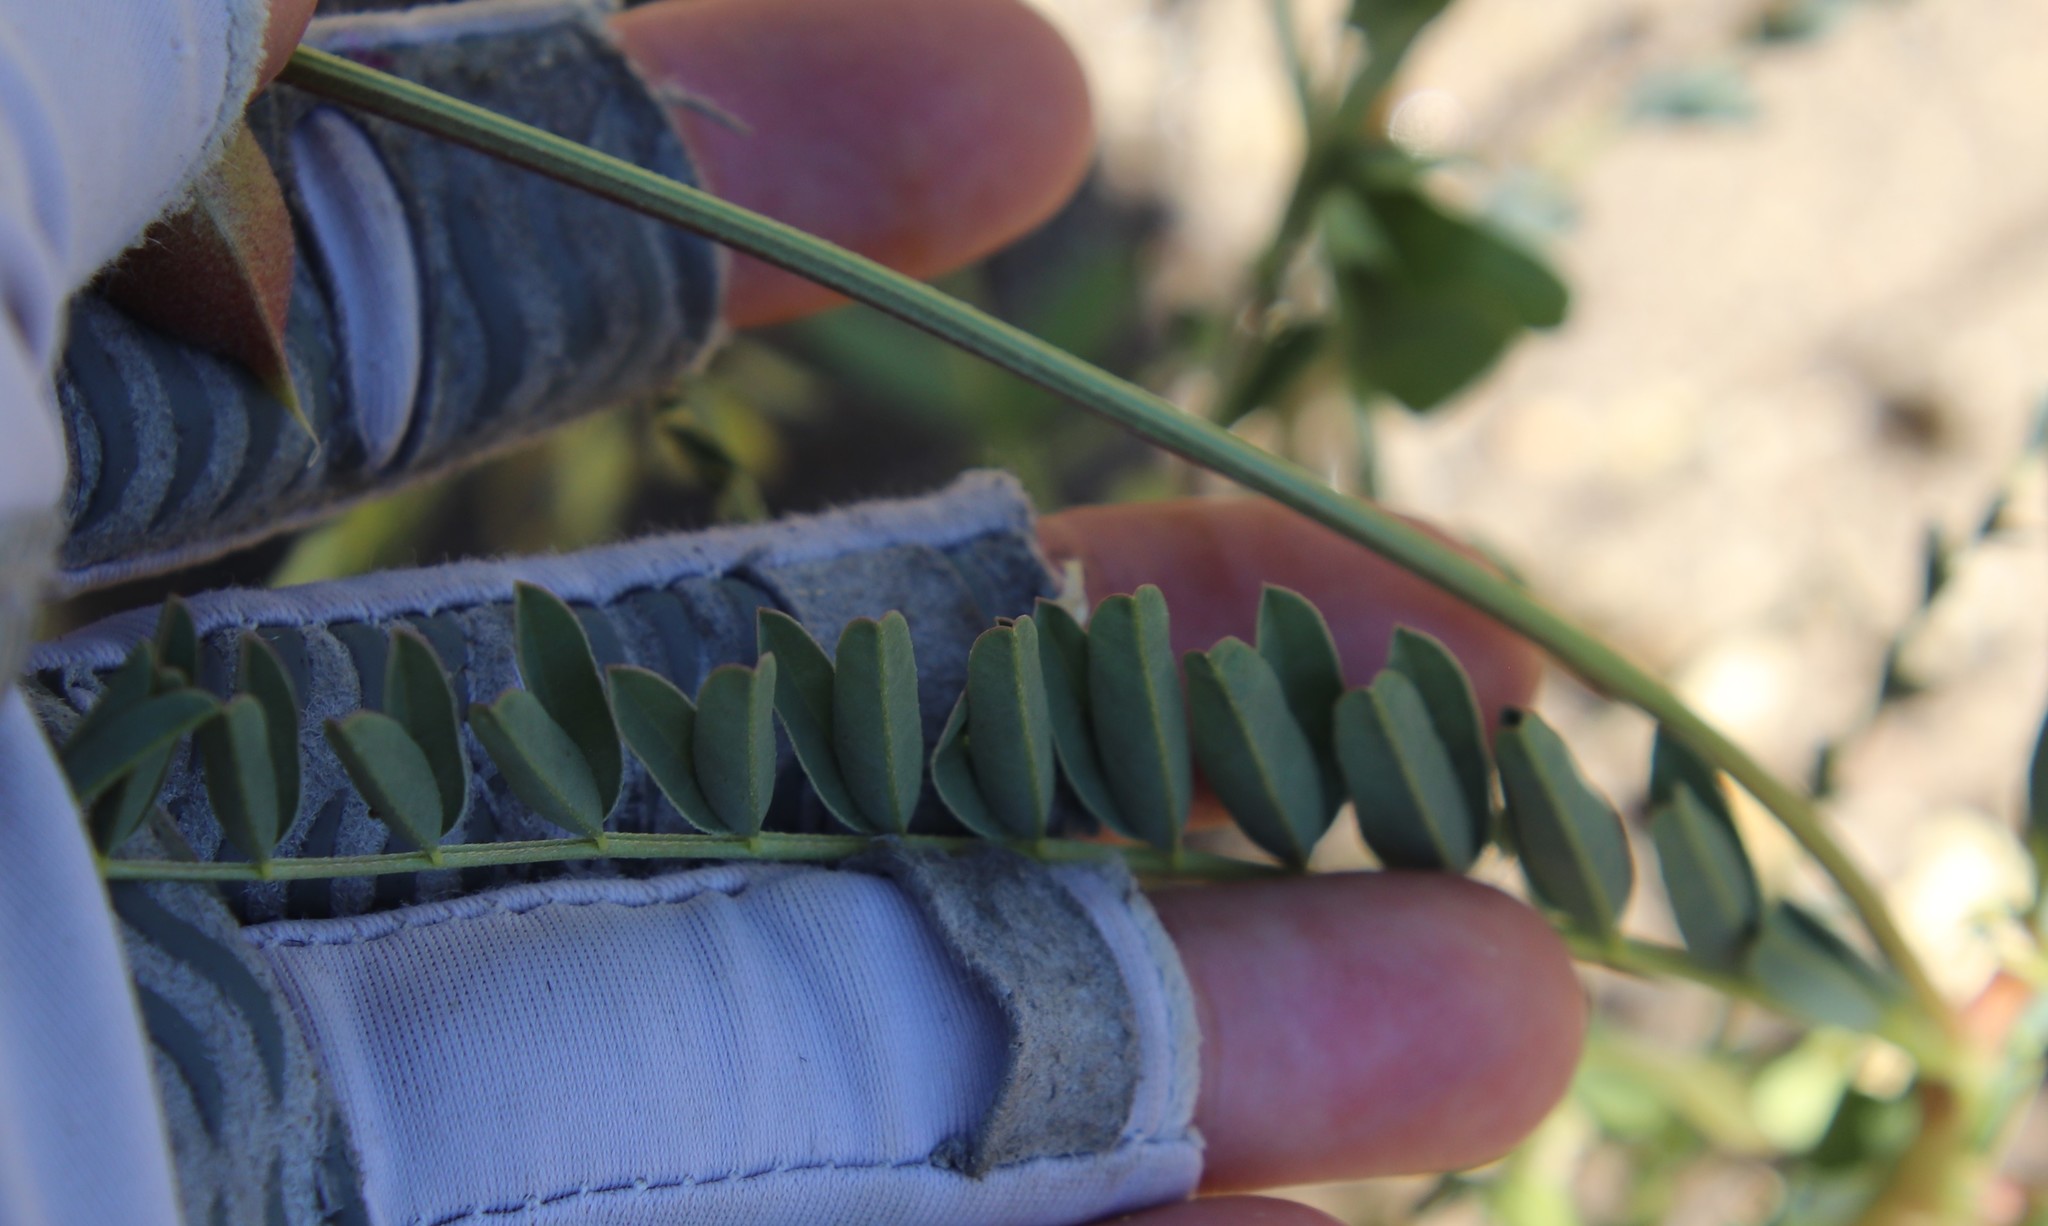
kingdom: Plantae
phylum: Tracheophyta
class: Magnoliopsida
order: Fabales
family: Fabaceae
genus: Astragalus
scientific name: Astragalus deanei
